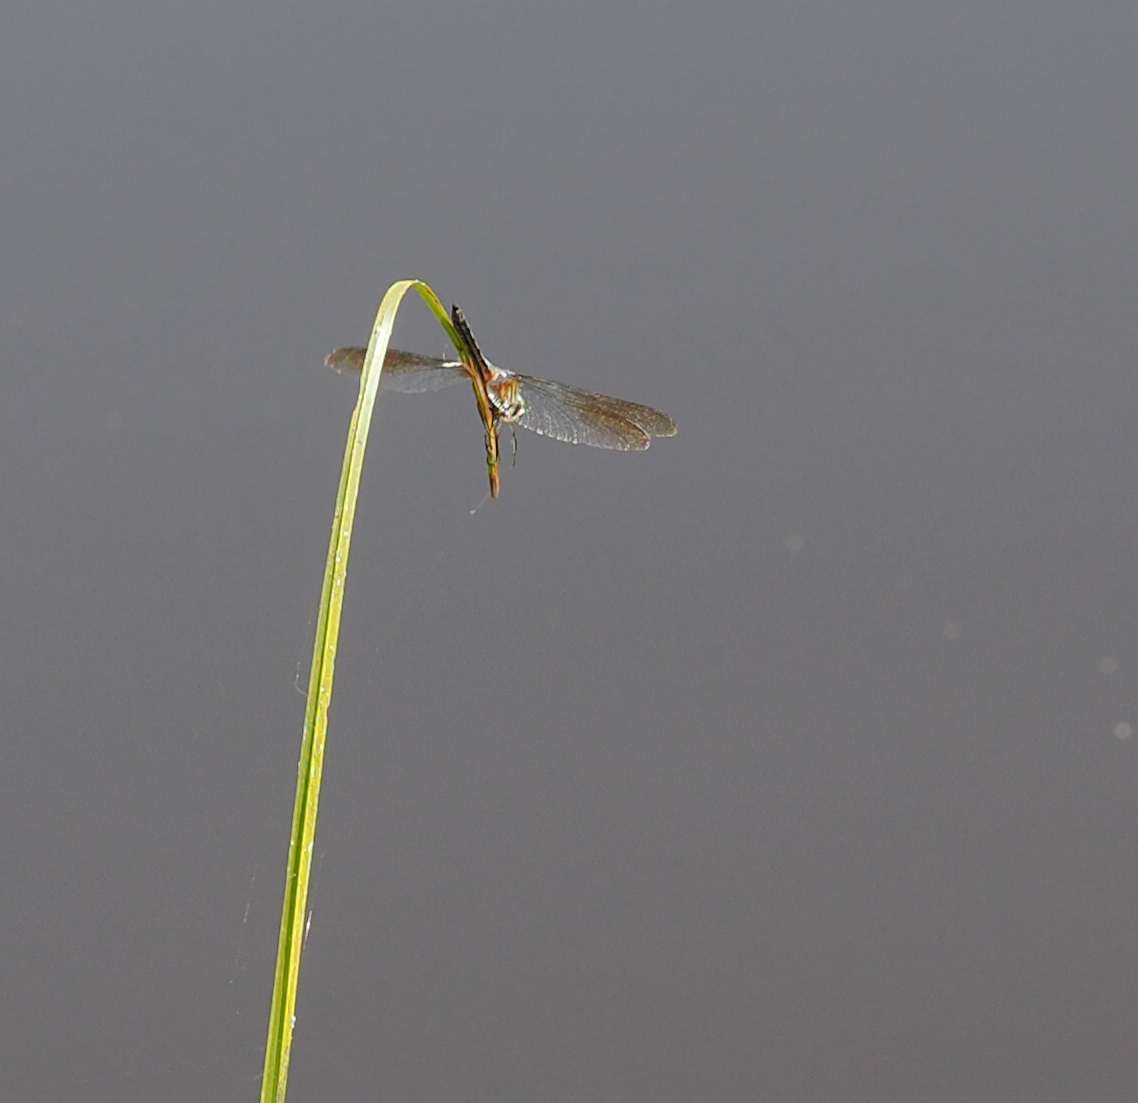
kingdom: Animalia
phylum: Arthropoda
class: Insecta
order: Odonata
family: Libellulidae
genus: Pachydiplax
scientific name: Pachydiplax longipennis
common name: Blue dasher
